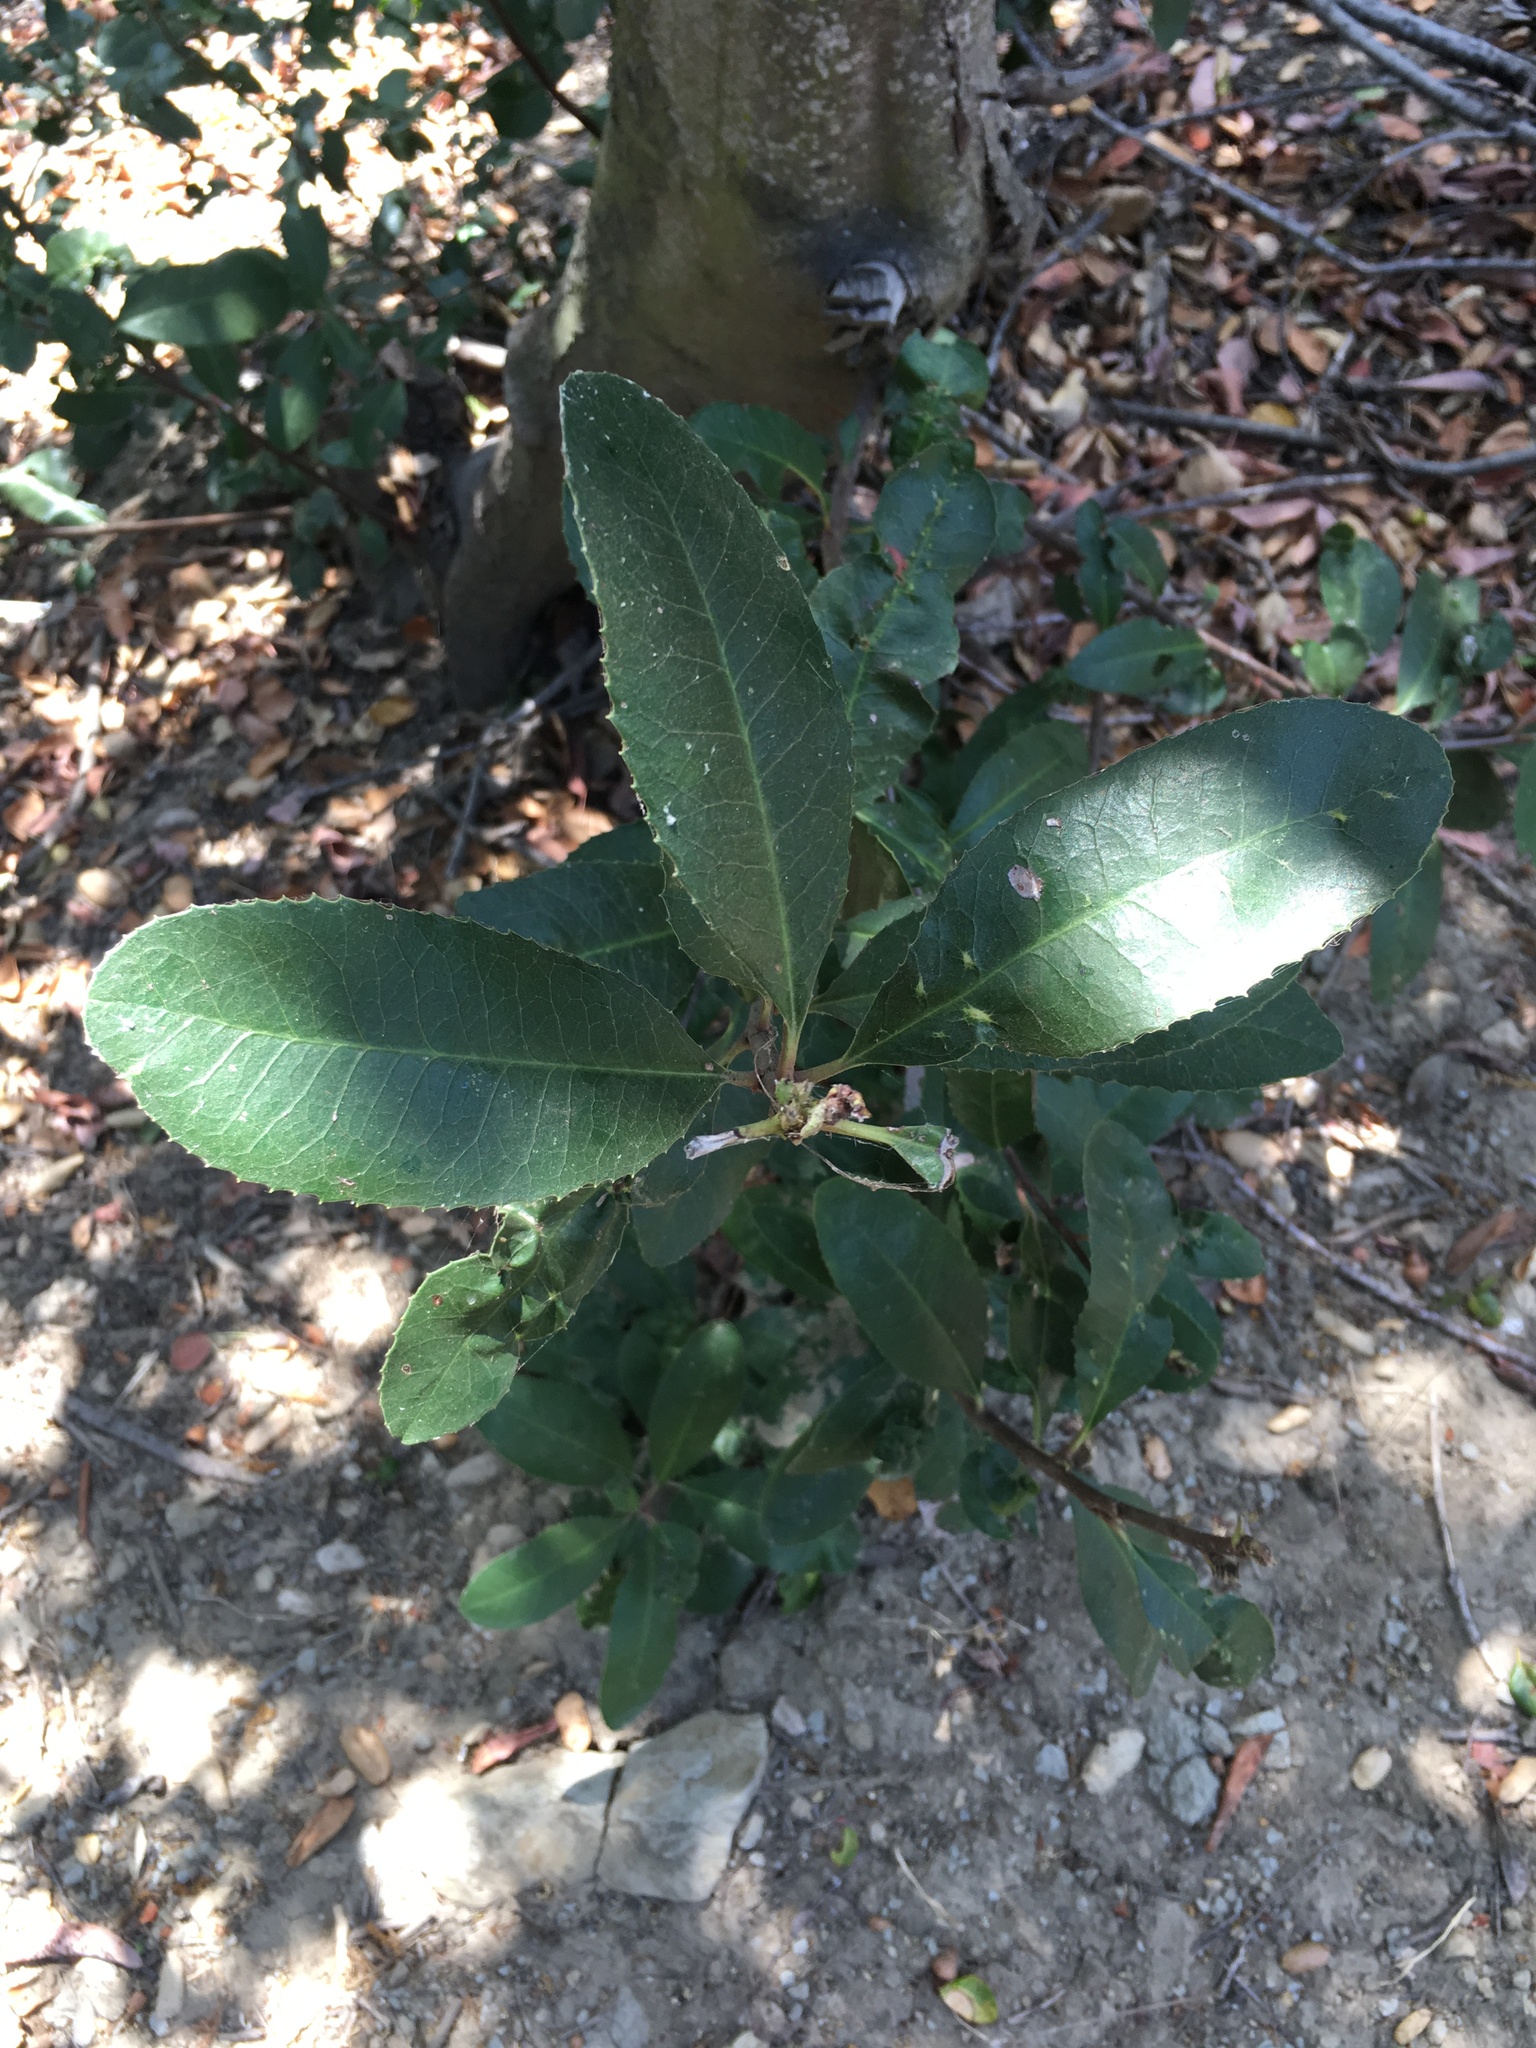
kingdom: Plantae
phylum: Tracheophyta
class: Magnoliopsida
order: Rosales
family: Rosaceae
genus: Heteromeles
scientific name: Heteromeles arbutifolia
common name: California-holly
